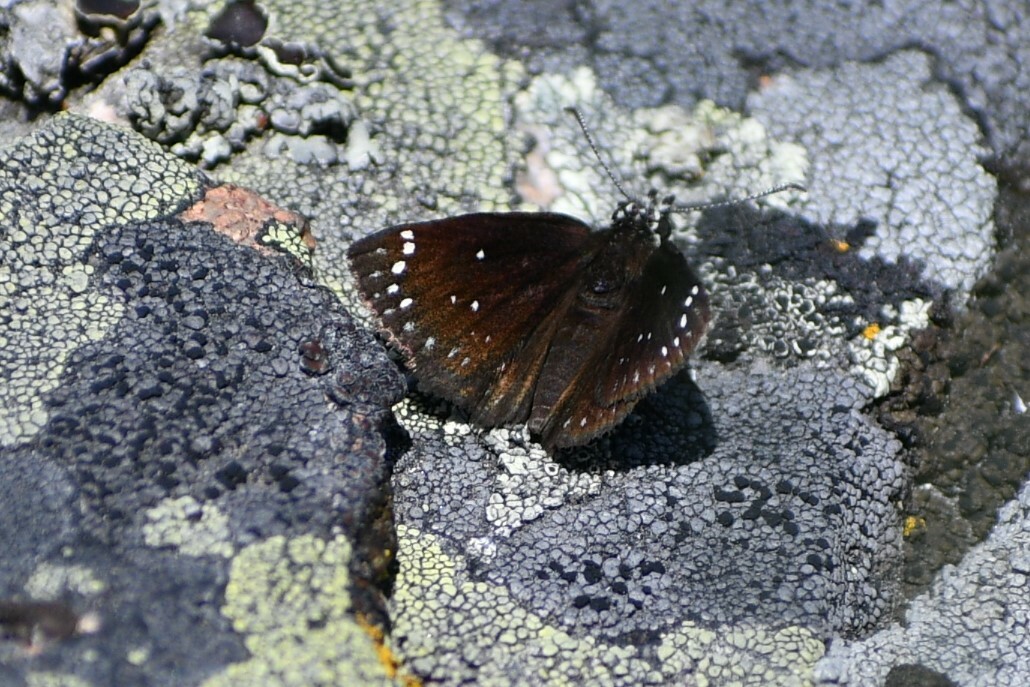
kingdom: Animalia
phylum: Arthropoda
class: Insecta
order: Lepidoptera
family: Hesperiidae
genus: Pholisora
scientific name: Pholisora catullus
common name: Common sootywing
